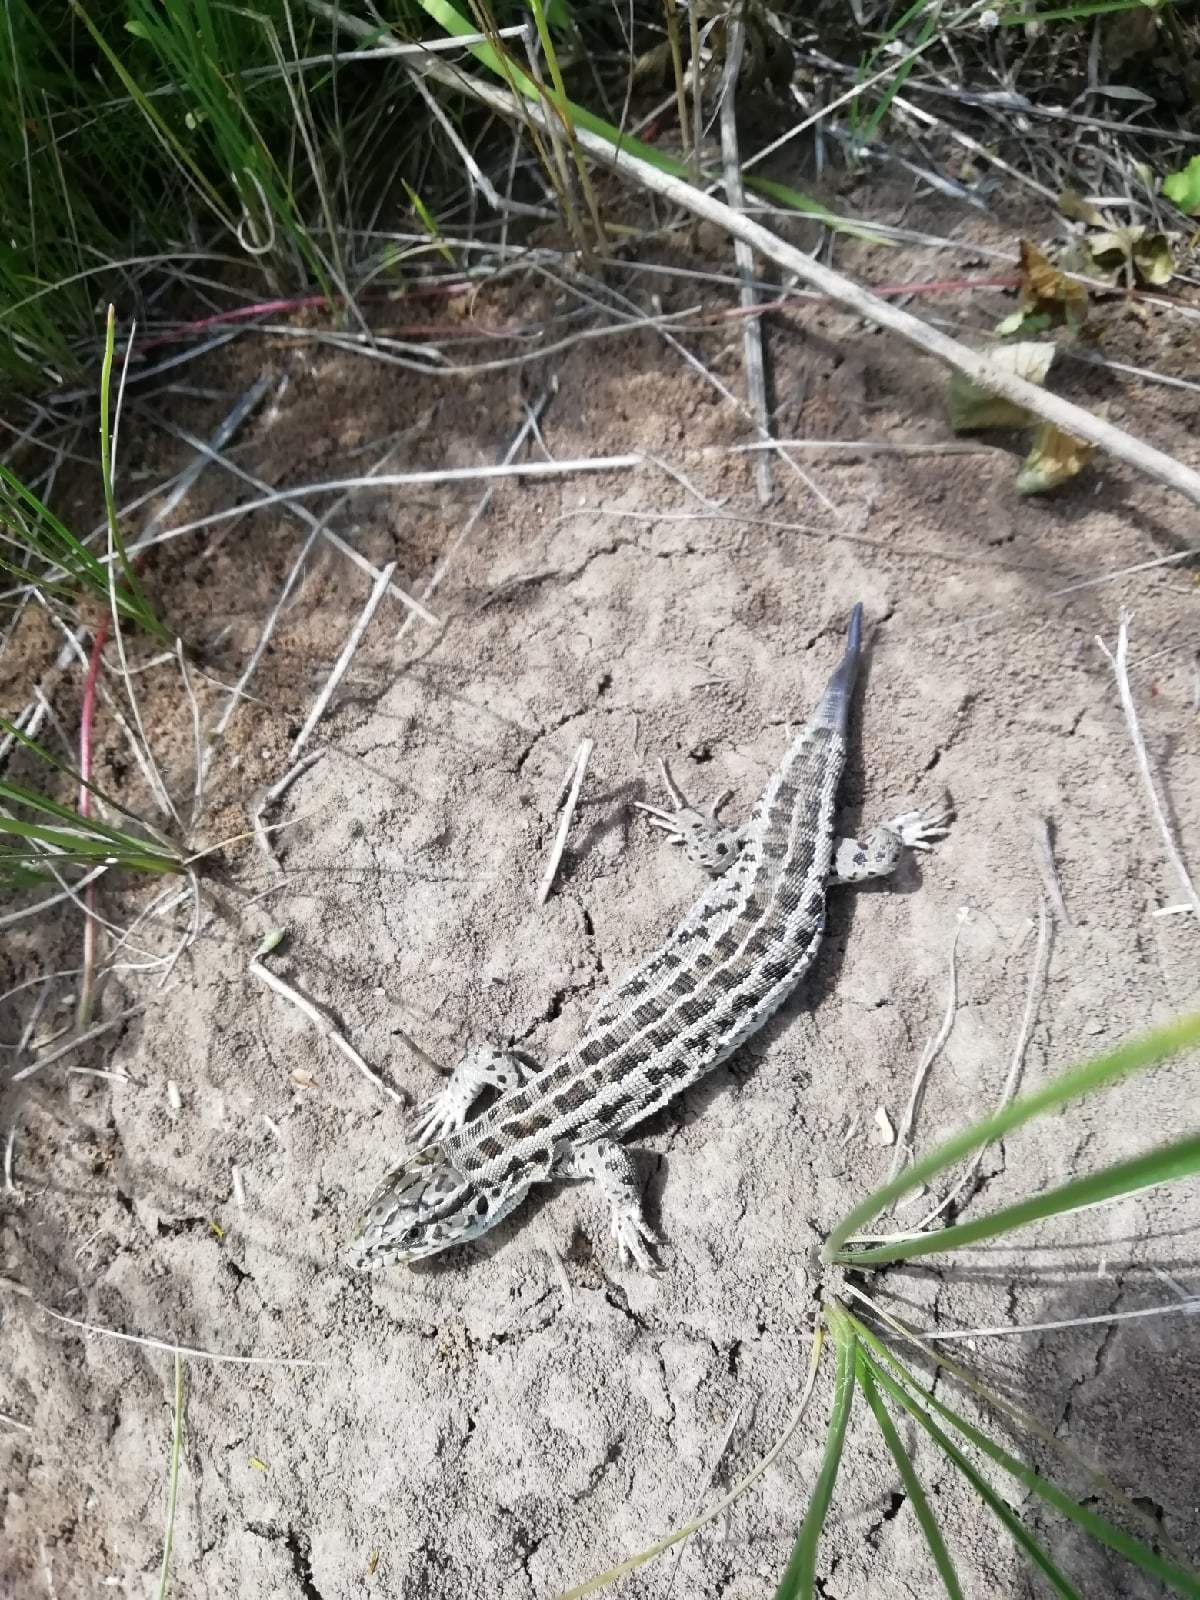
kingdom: Animalia
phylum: Chordata
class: Squamata
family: Lacertidae
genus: Lacerta
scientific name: Lacerta agilis
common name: Sand lizard
